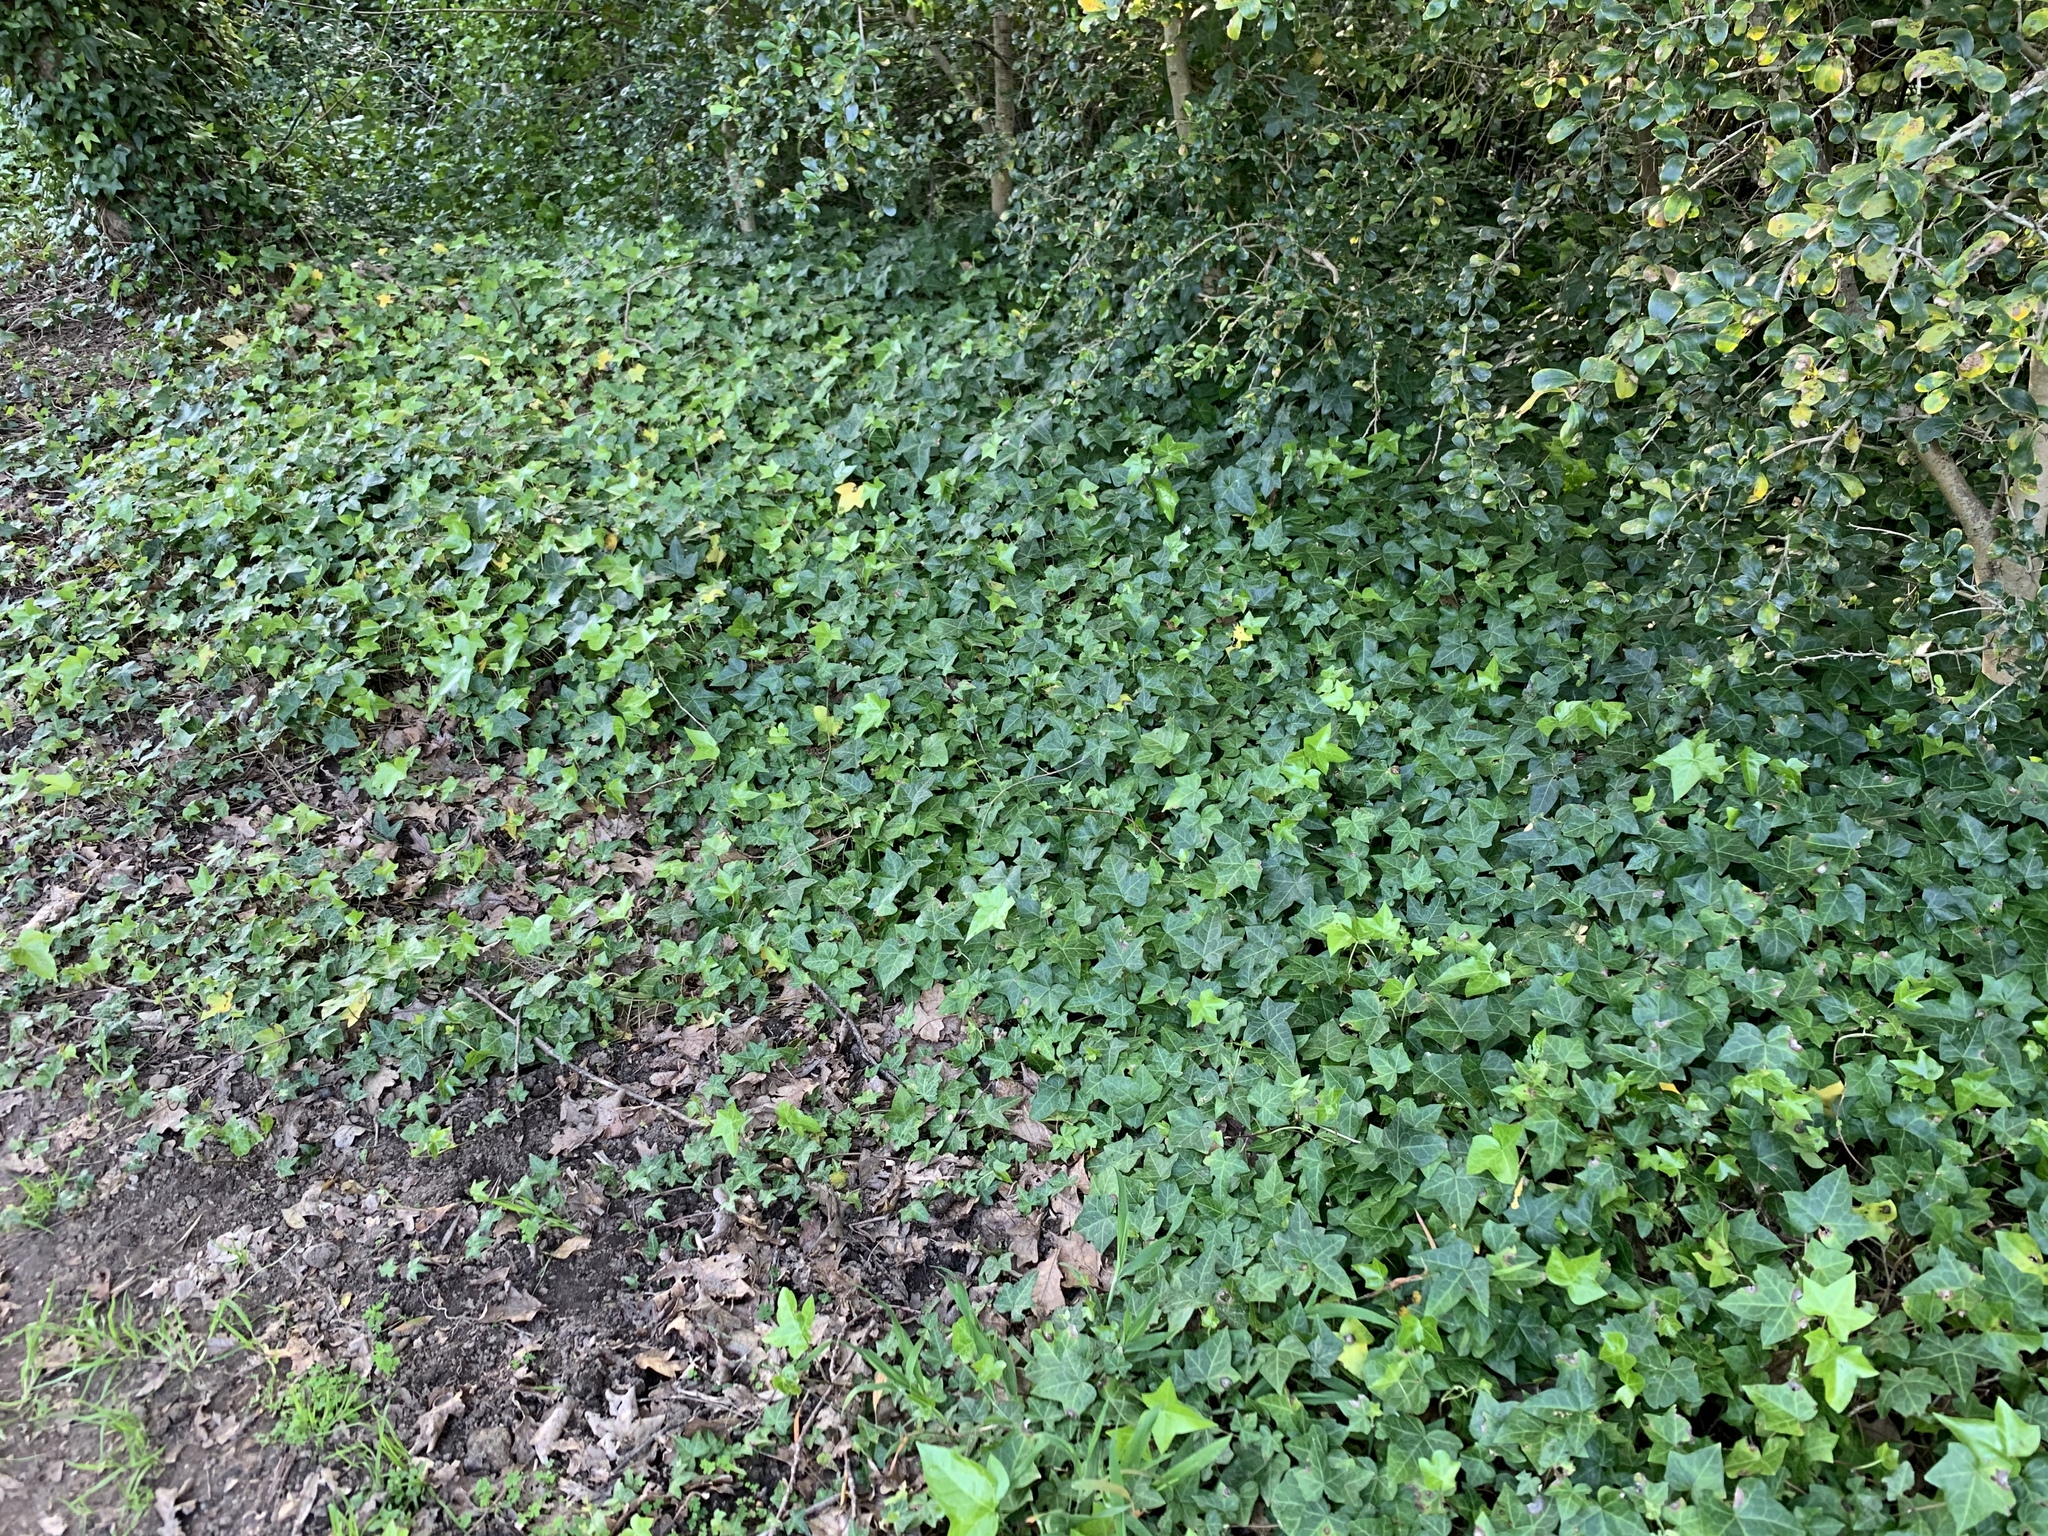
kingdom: Plantae
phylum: Tracheophyta
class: Magnoliopsida
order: Apiales
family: Araliaceae
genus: Hedera
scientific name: Hedera helix
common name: Ivy
